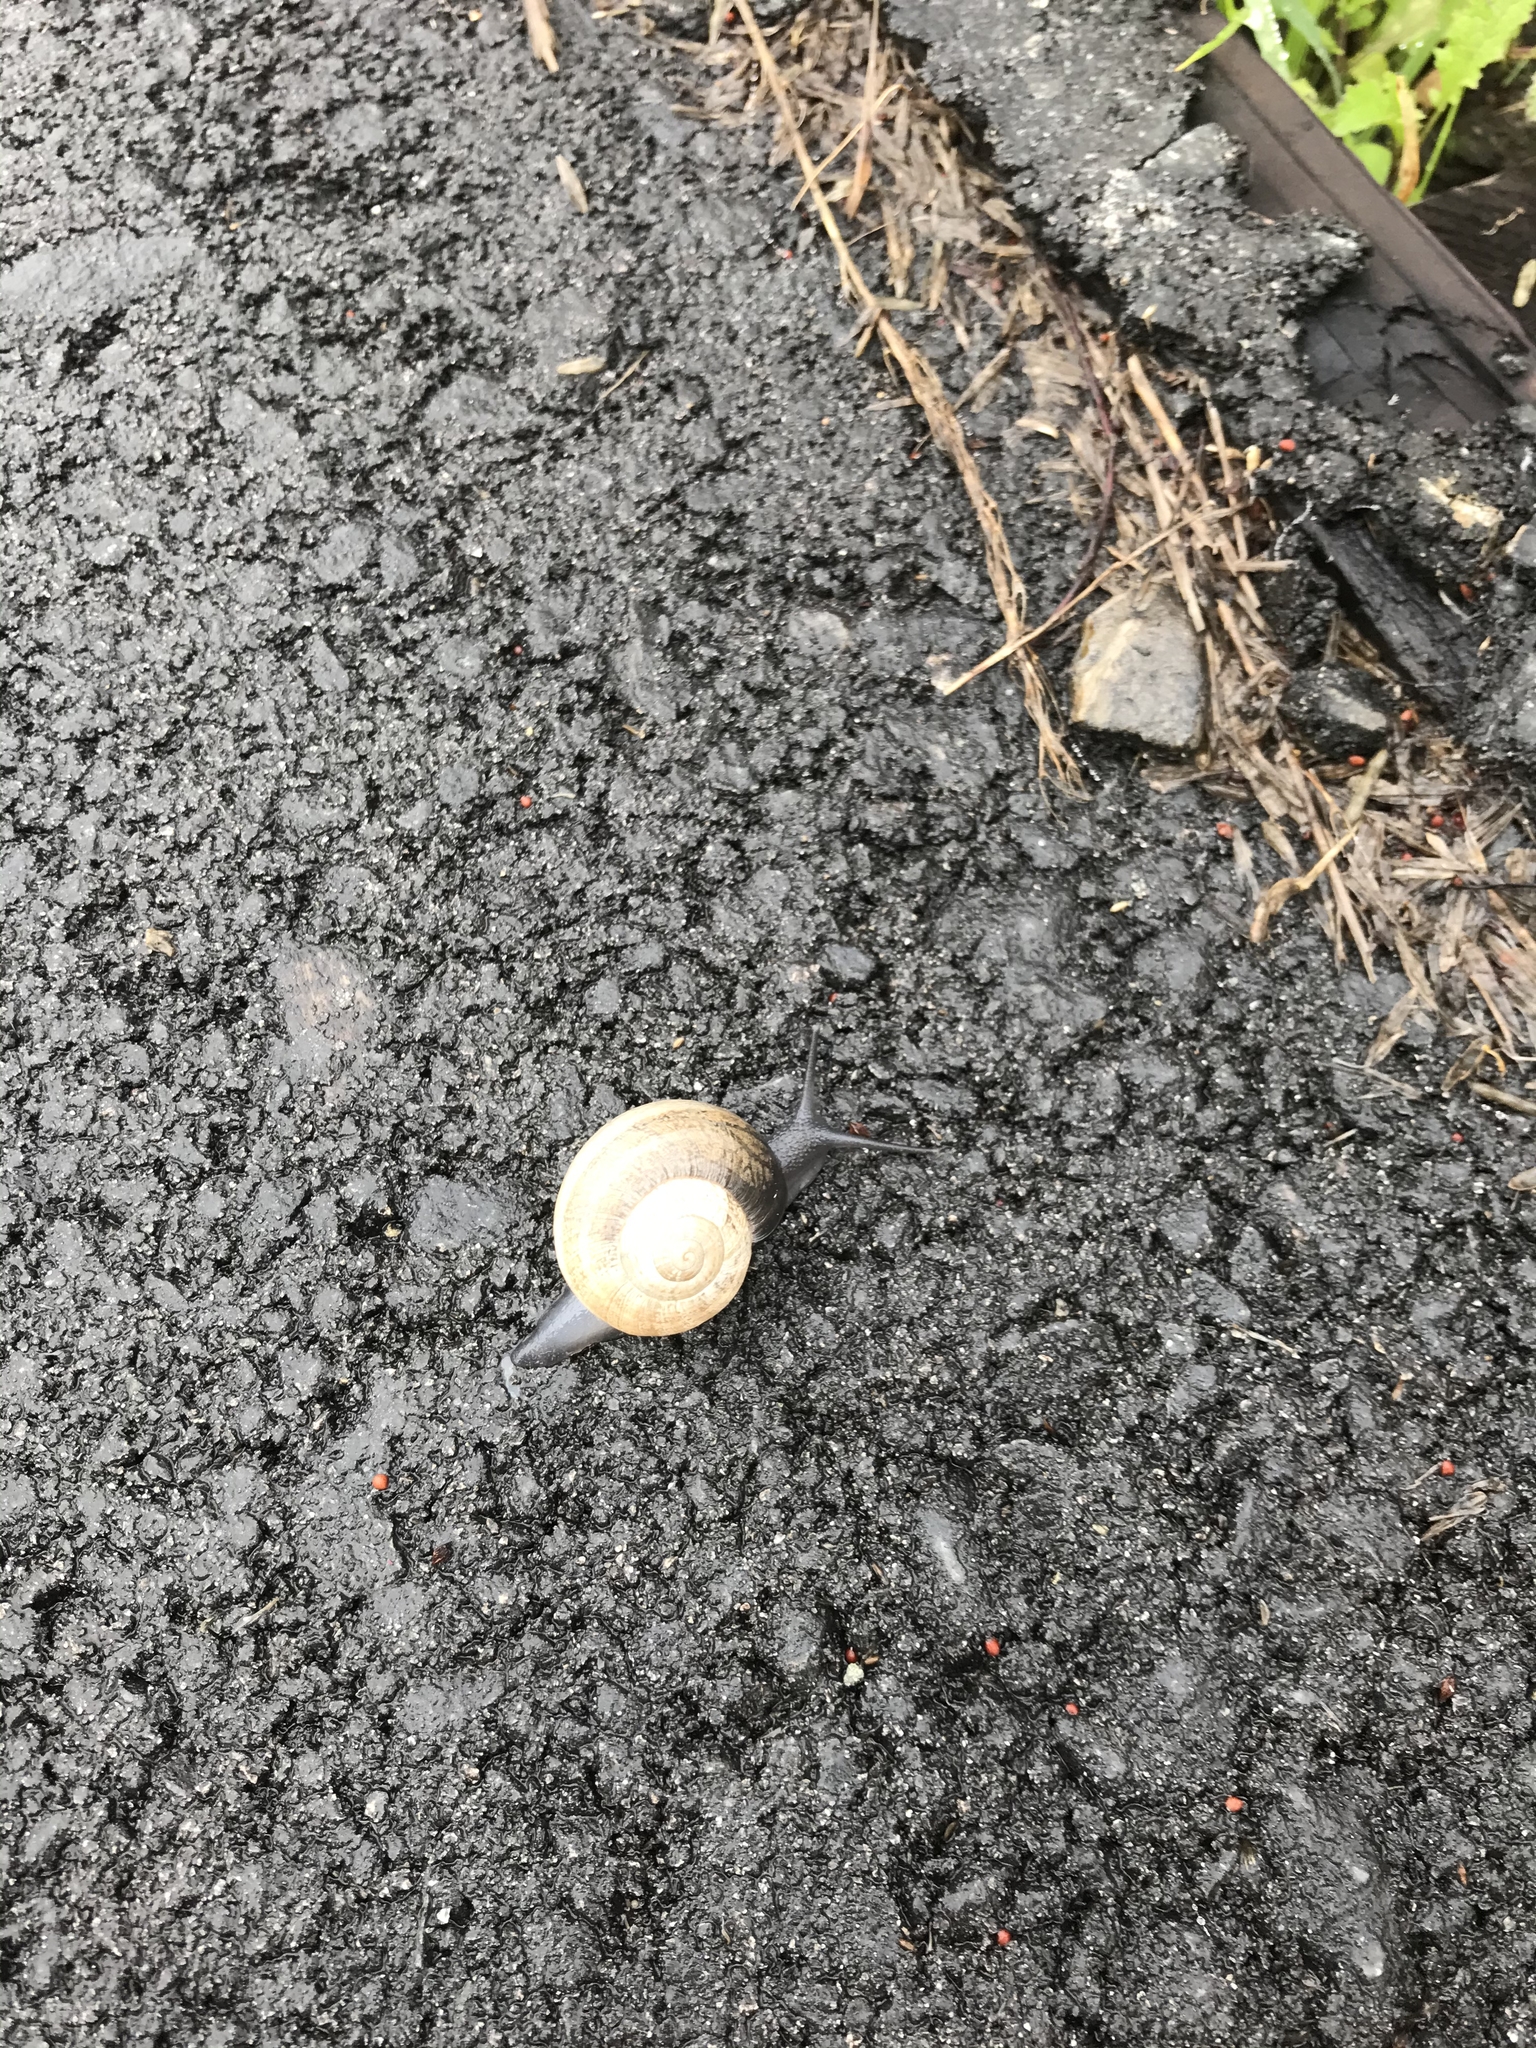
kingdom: Animalia
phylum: Mollusca
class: Gastropoda
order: Stylommatophora
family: Helicidae
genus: Otala
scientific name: Otala lactea
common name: Milk snail
